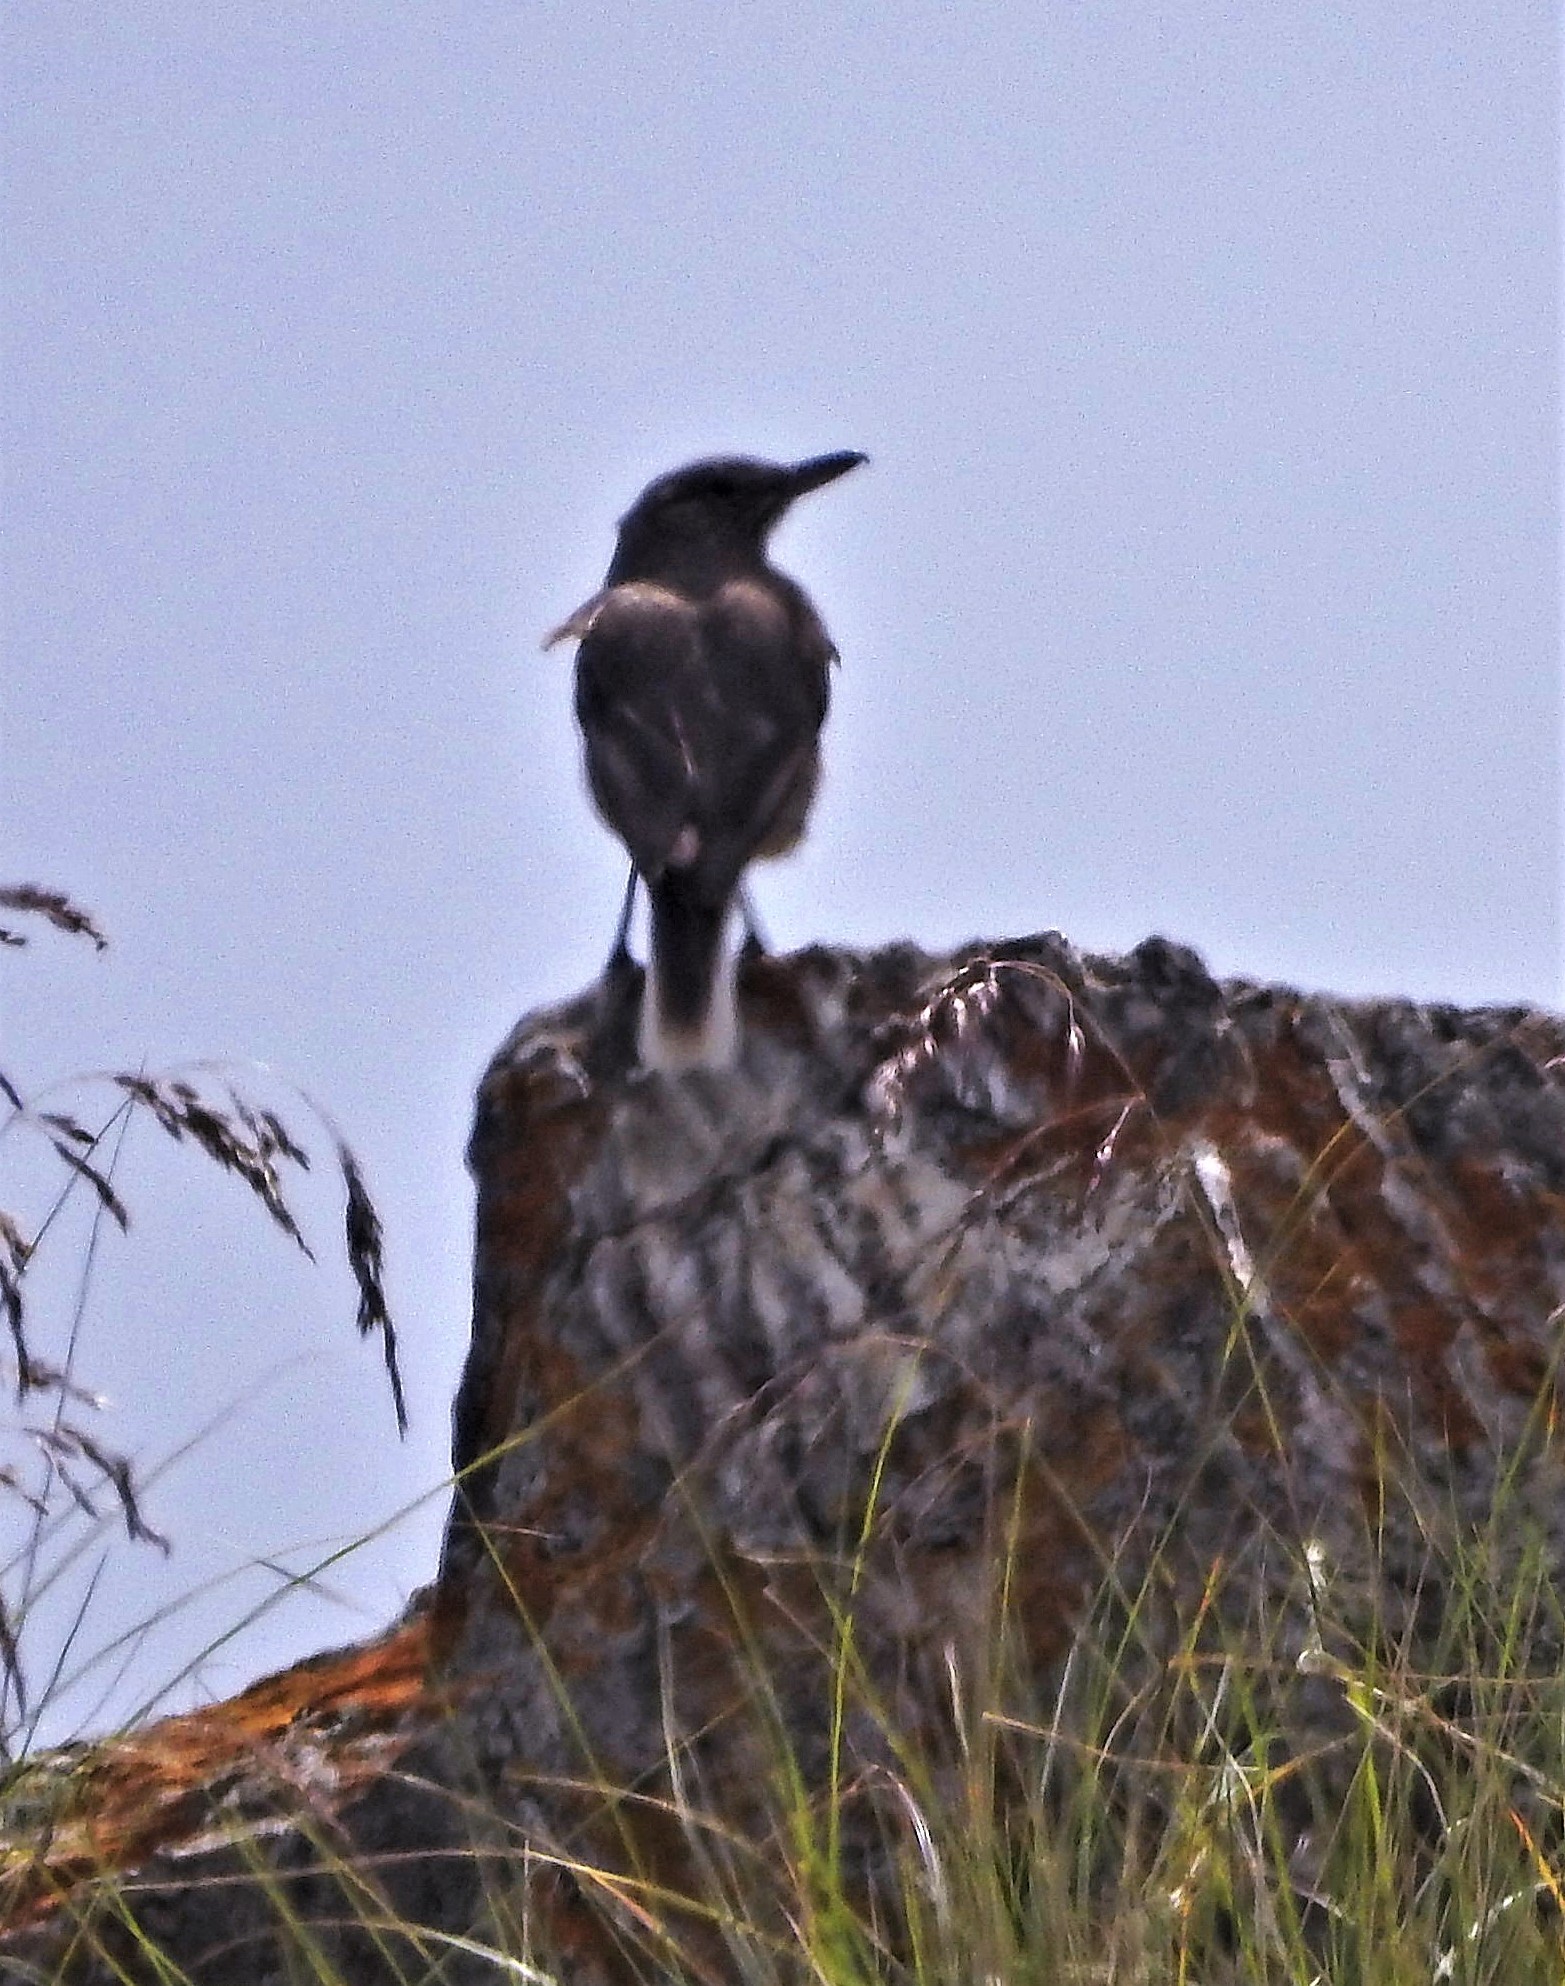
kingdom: Animalia
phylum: Chordata
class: Aves
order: Passeriformes
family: Tyrannidae
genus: Agriornis
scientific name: Agriornis andicola
